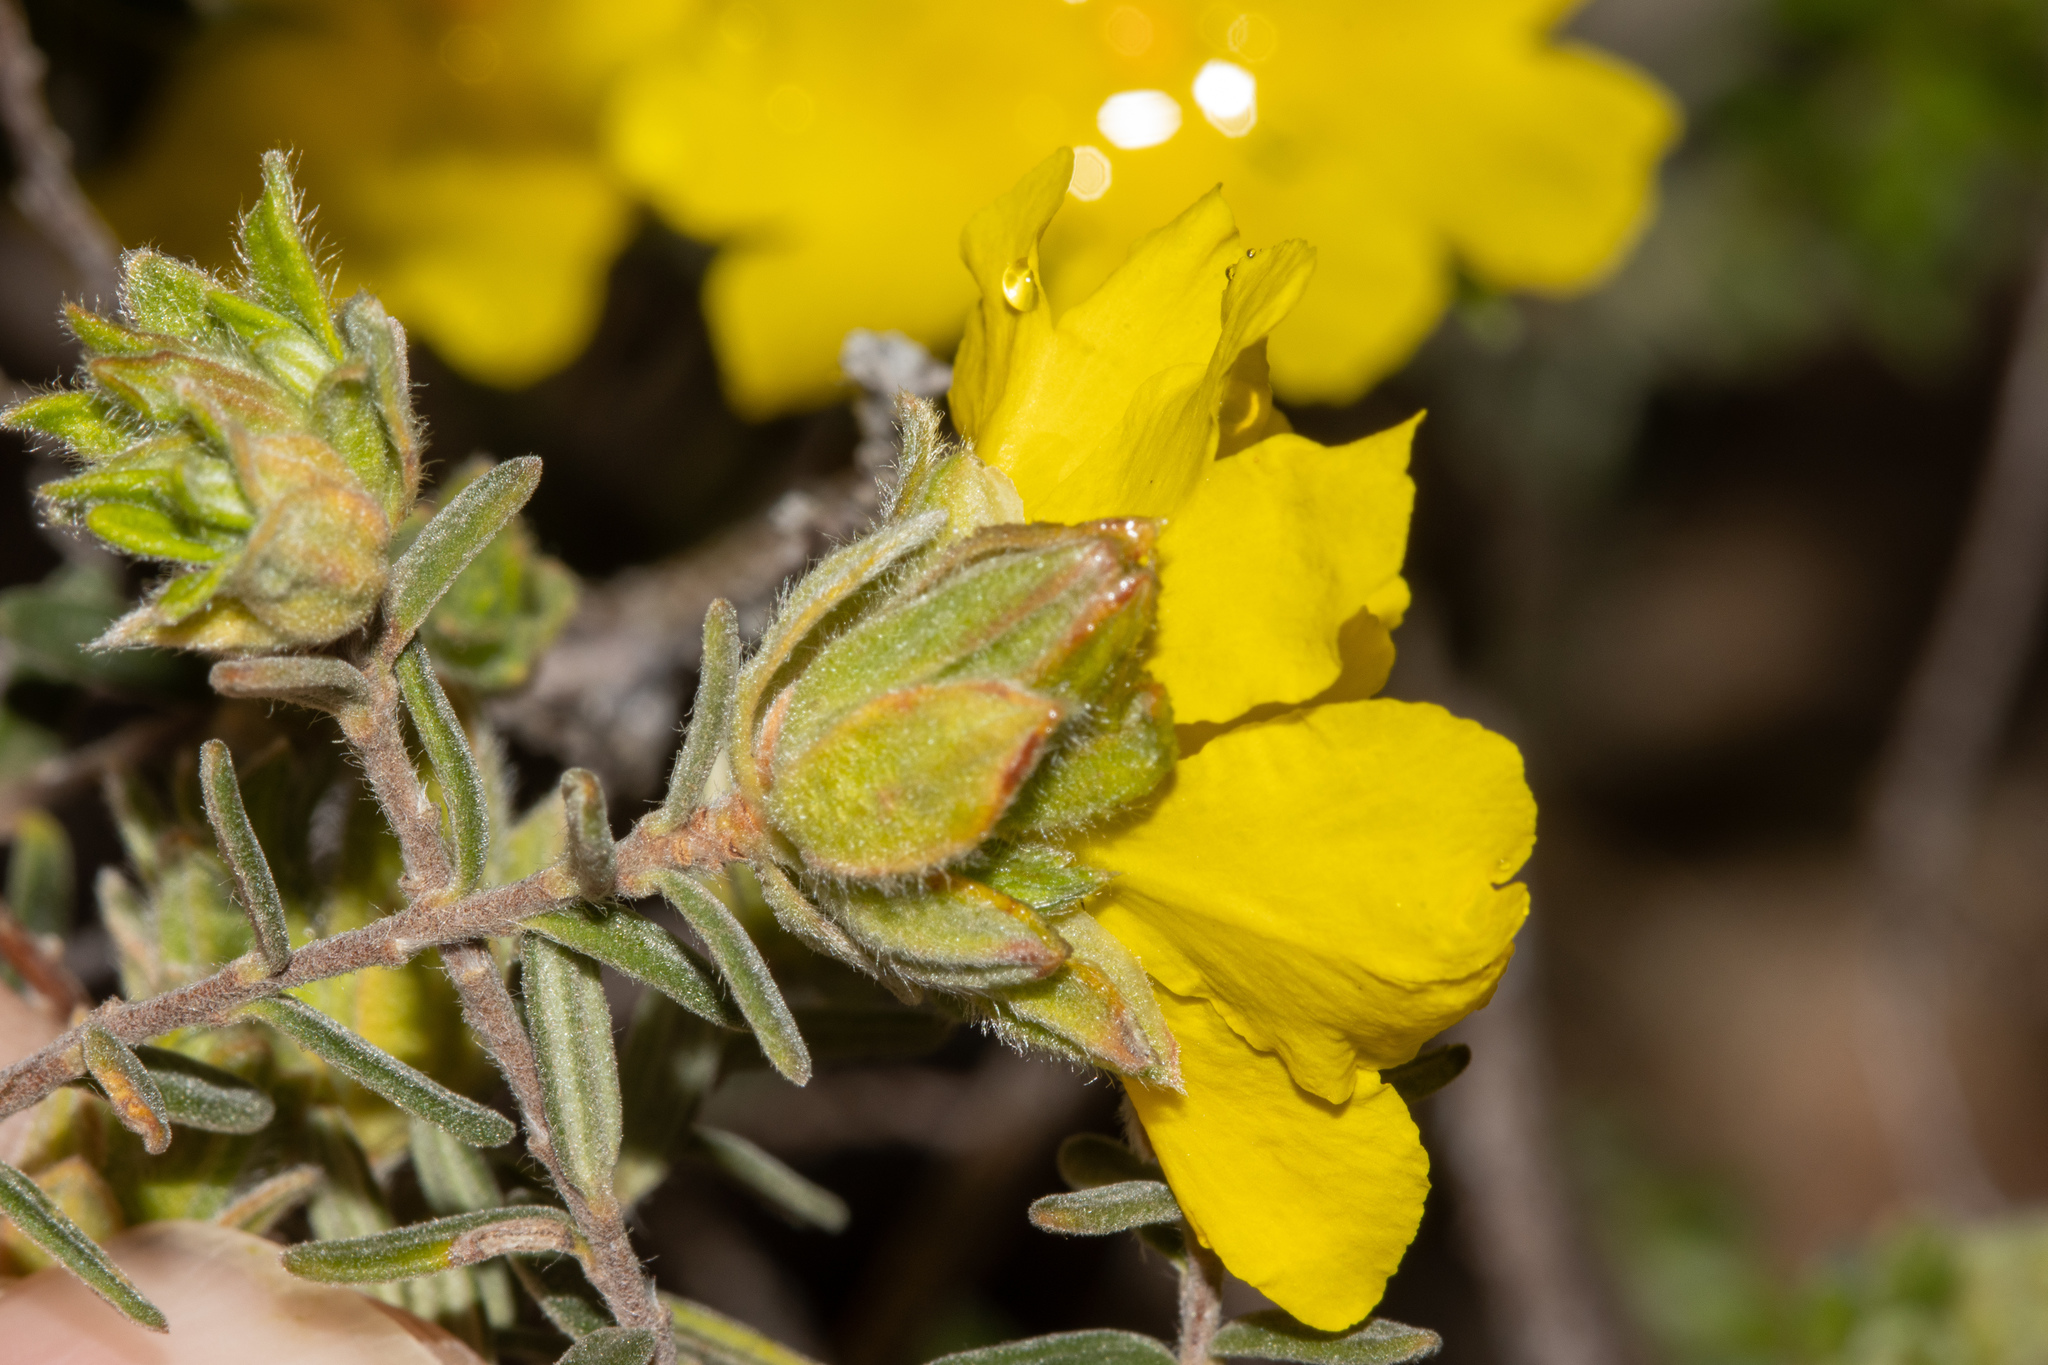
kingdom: Plantae
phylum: Tracheophyta
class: Magnoliopsida
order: Dilleniales
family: Dilleniaceae
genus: Hibbertia
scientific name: Hibbertia crinita
